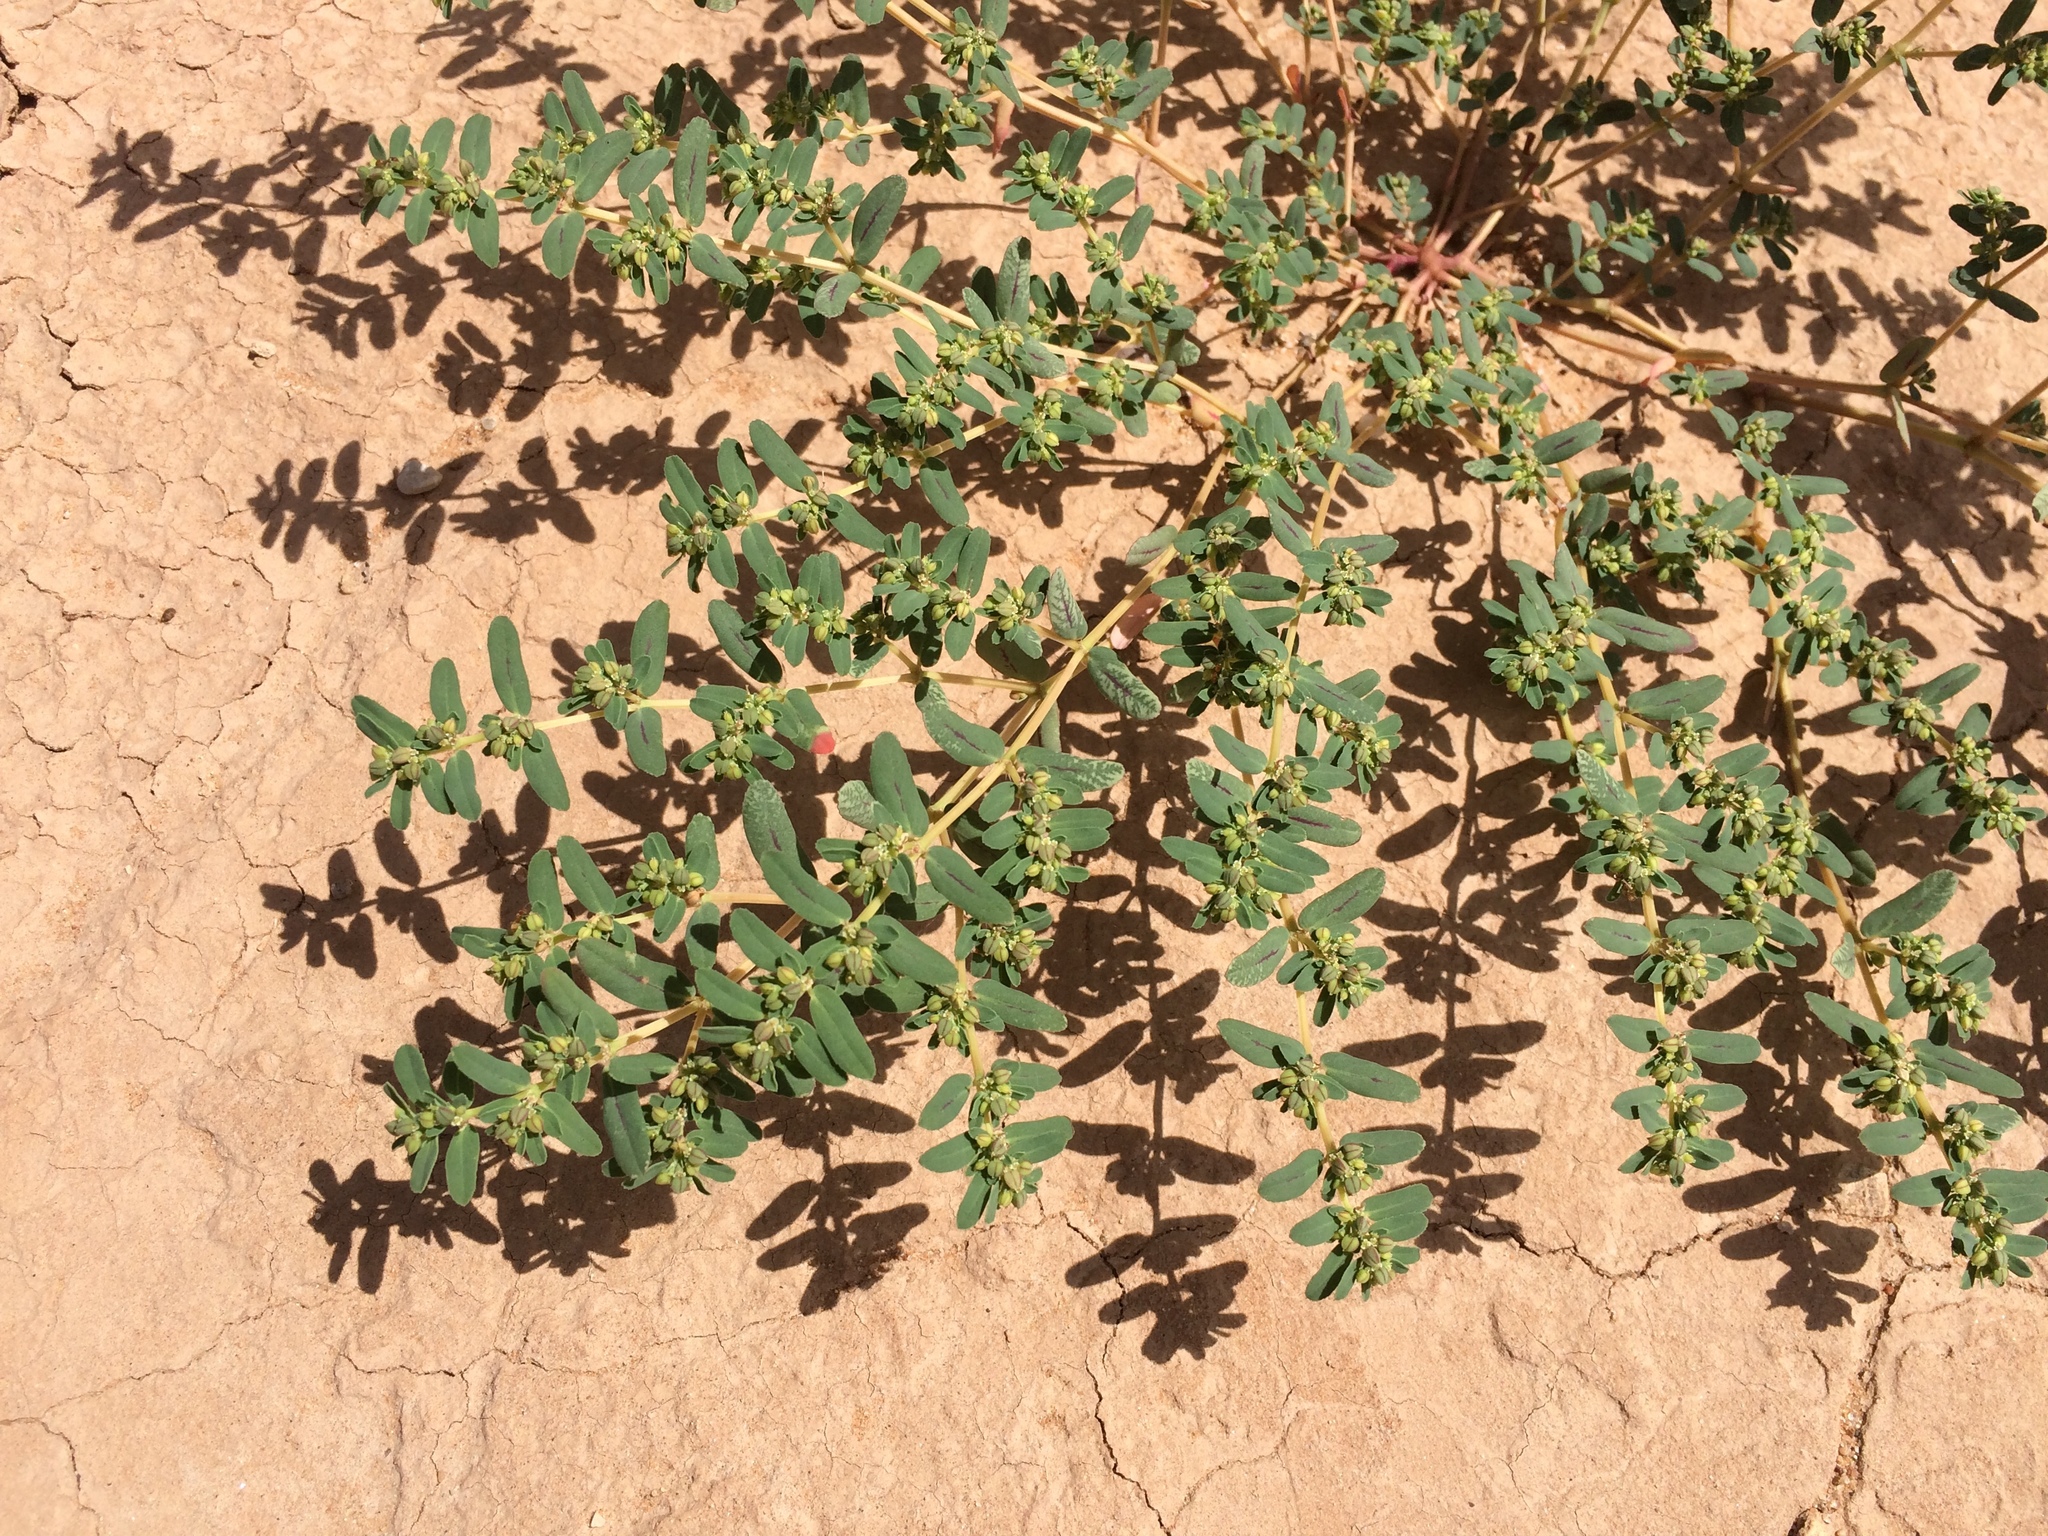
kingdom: Plantae
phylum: Tracheophyta
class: Magnoliopsida
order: Malpighiales
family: Euphorbiaceae
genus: Euphorbia
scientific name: Euphorbia serpillifolia
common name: Thyme-leaf spurge
